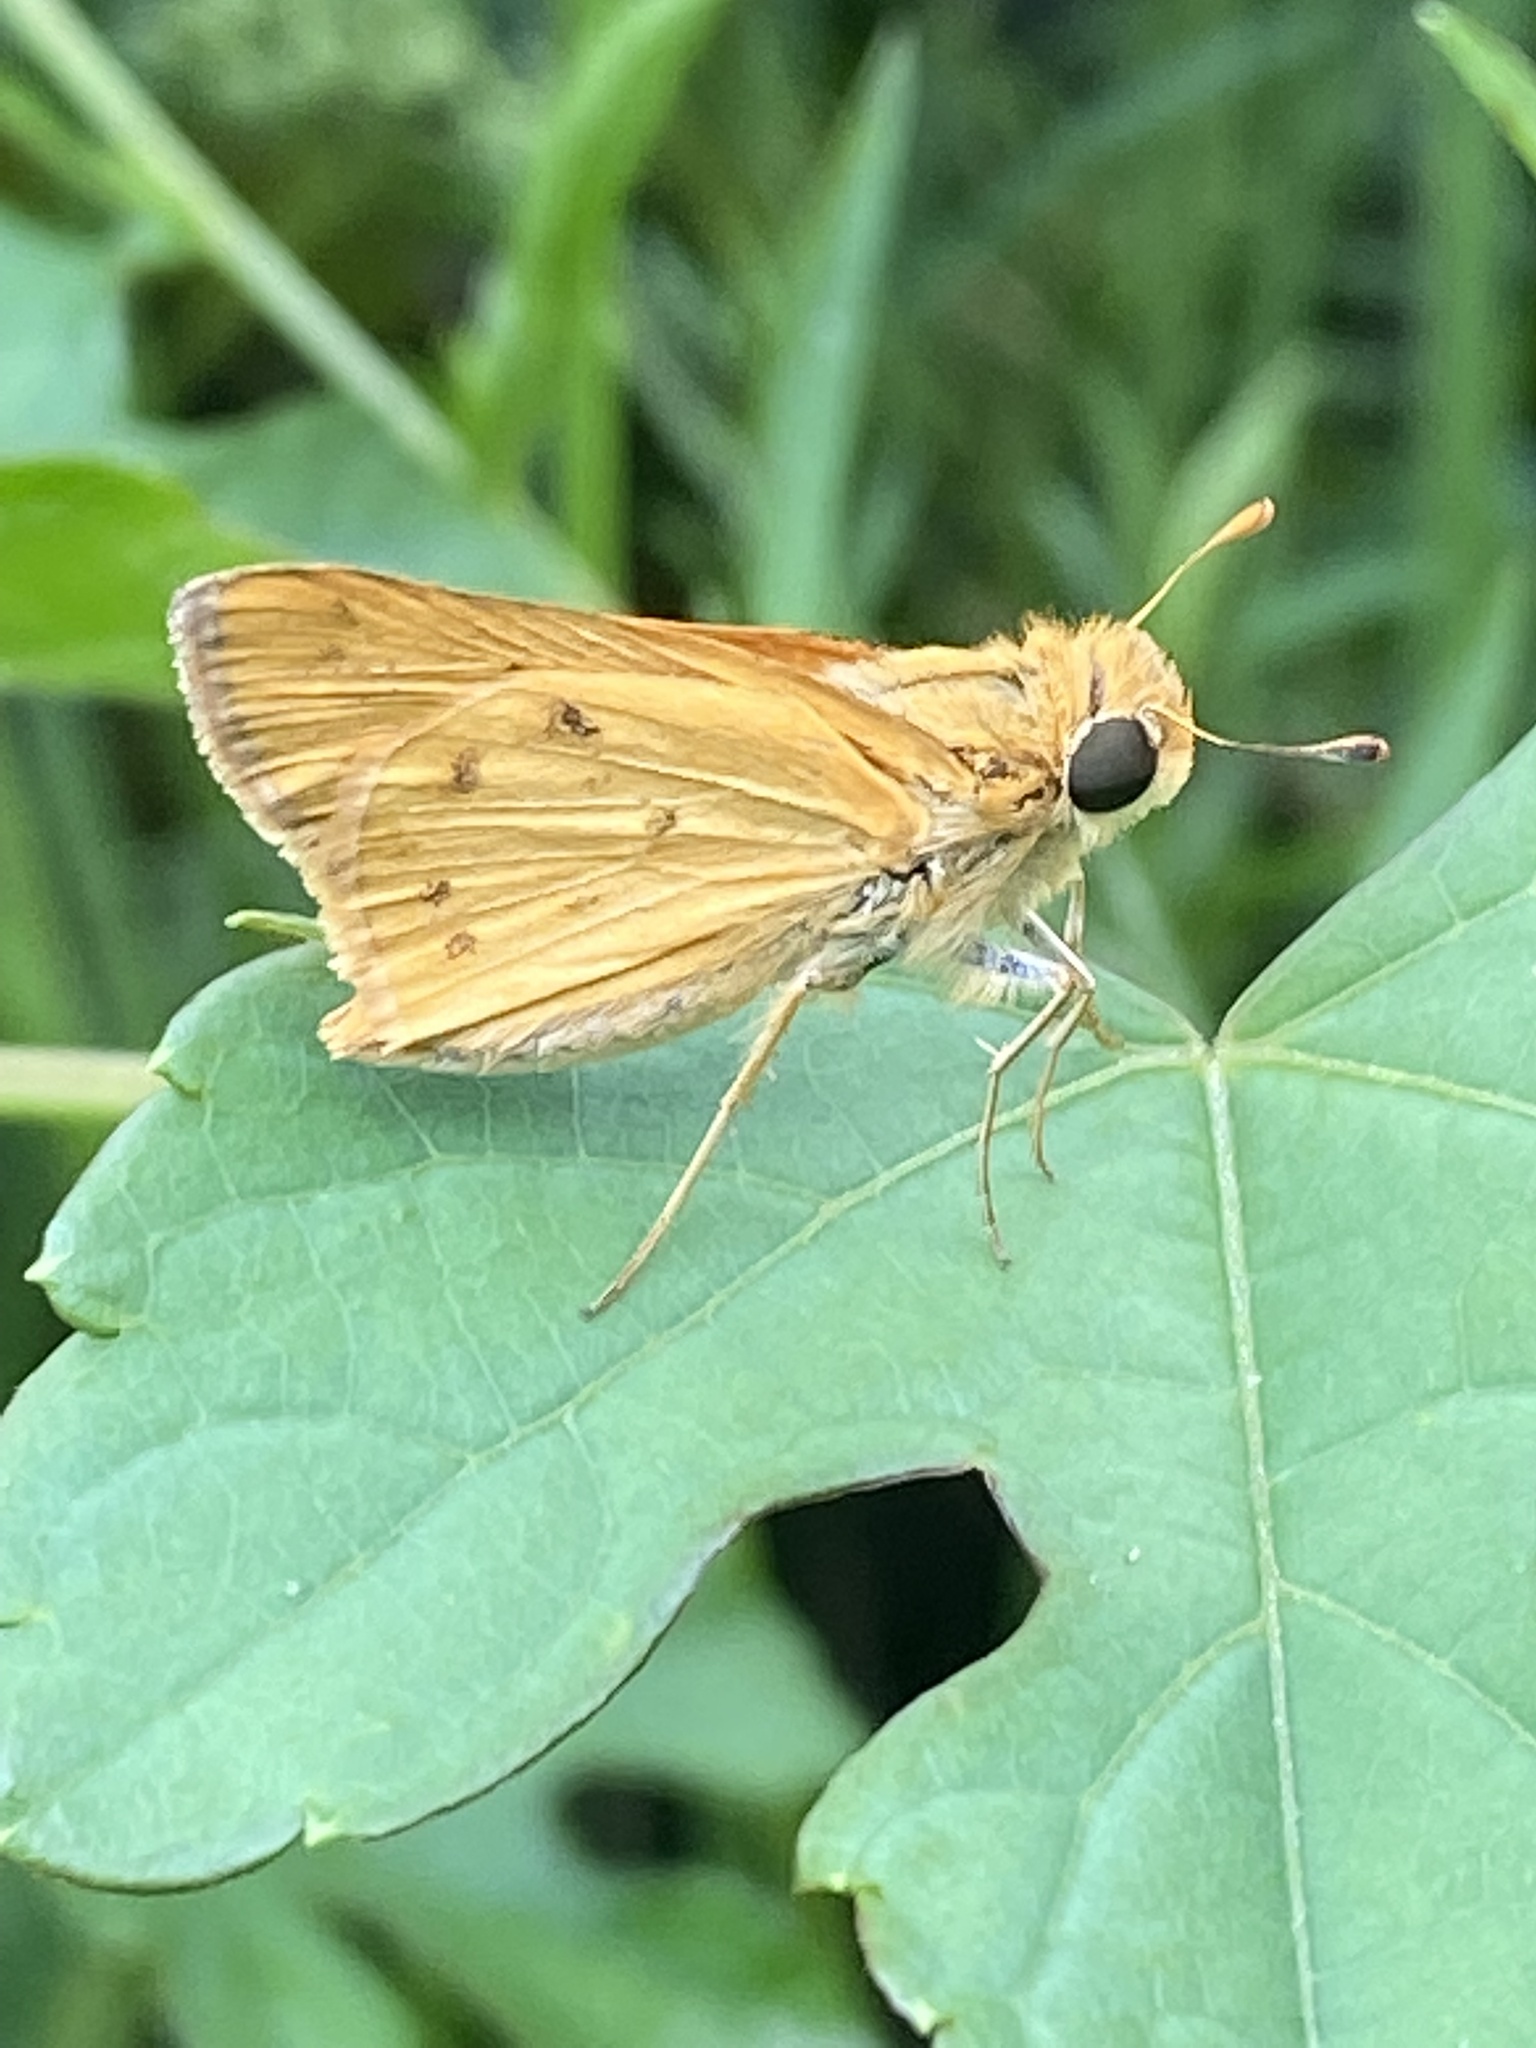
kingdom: Animalia
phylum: Arthropoda
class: Insecta
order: Lepidoptera
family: Hesperiidae
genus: Hylephila
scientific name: Hylephila phyleus
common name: Fiery skipper
